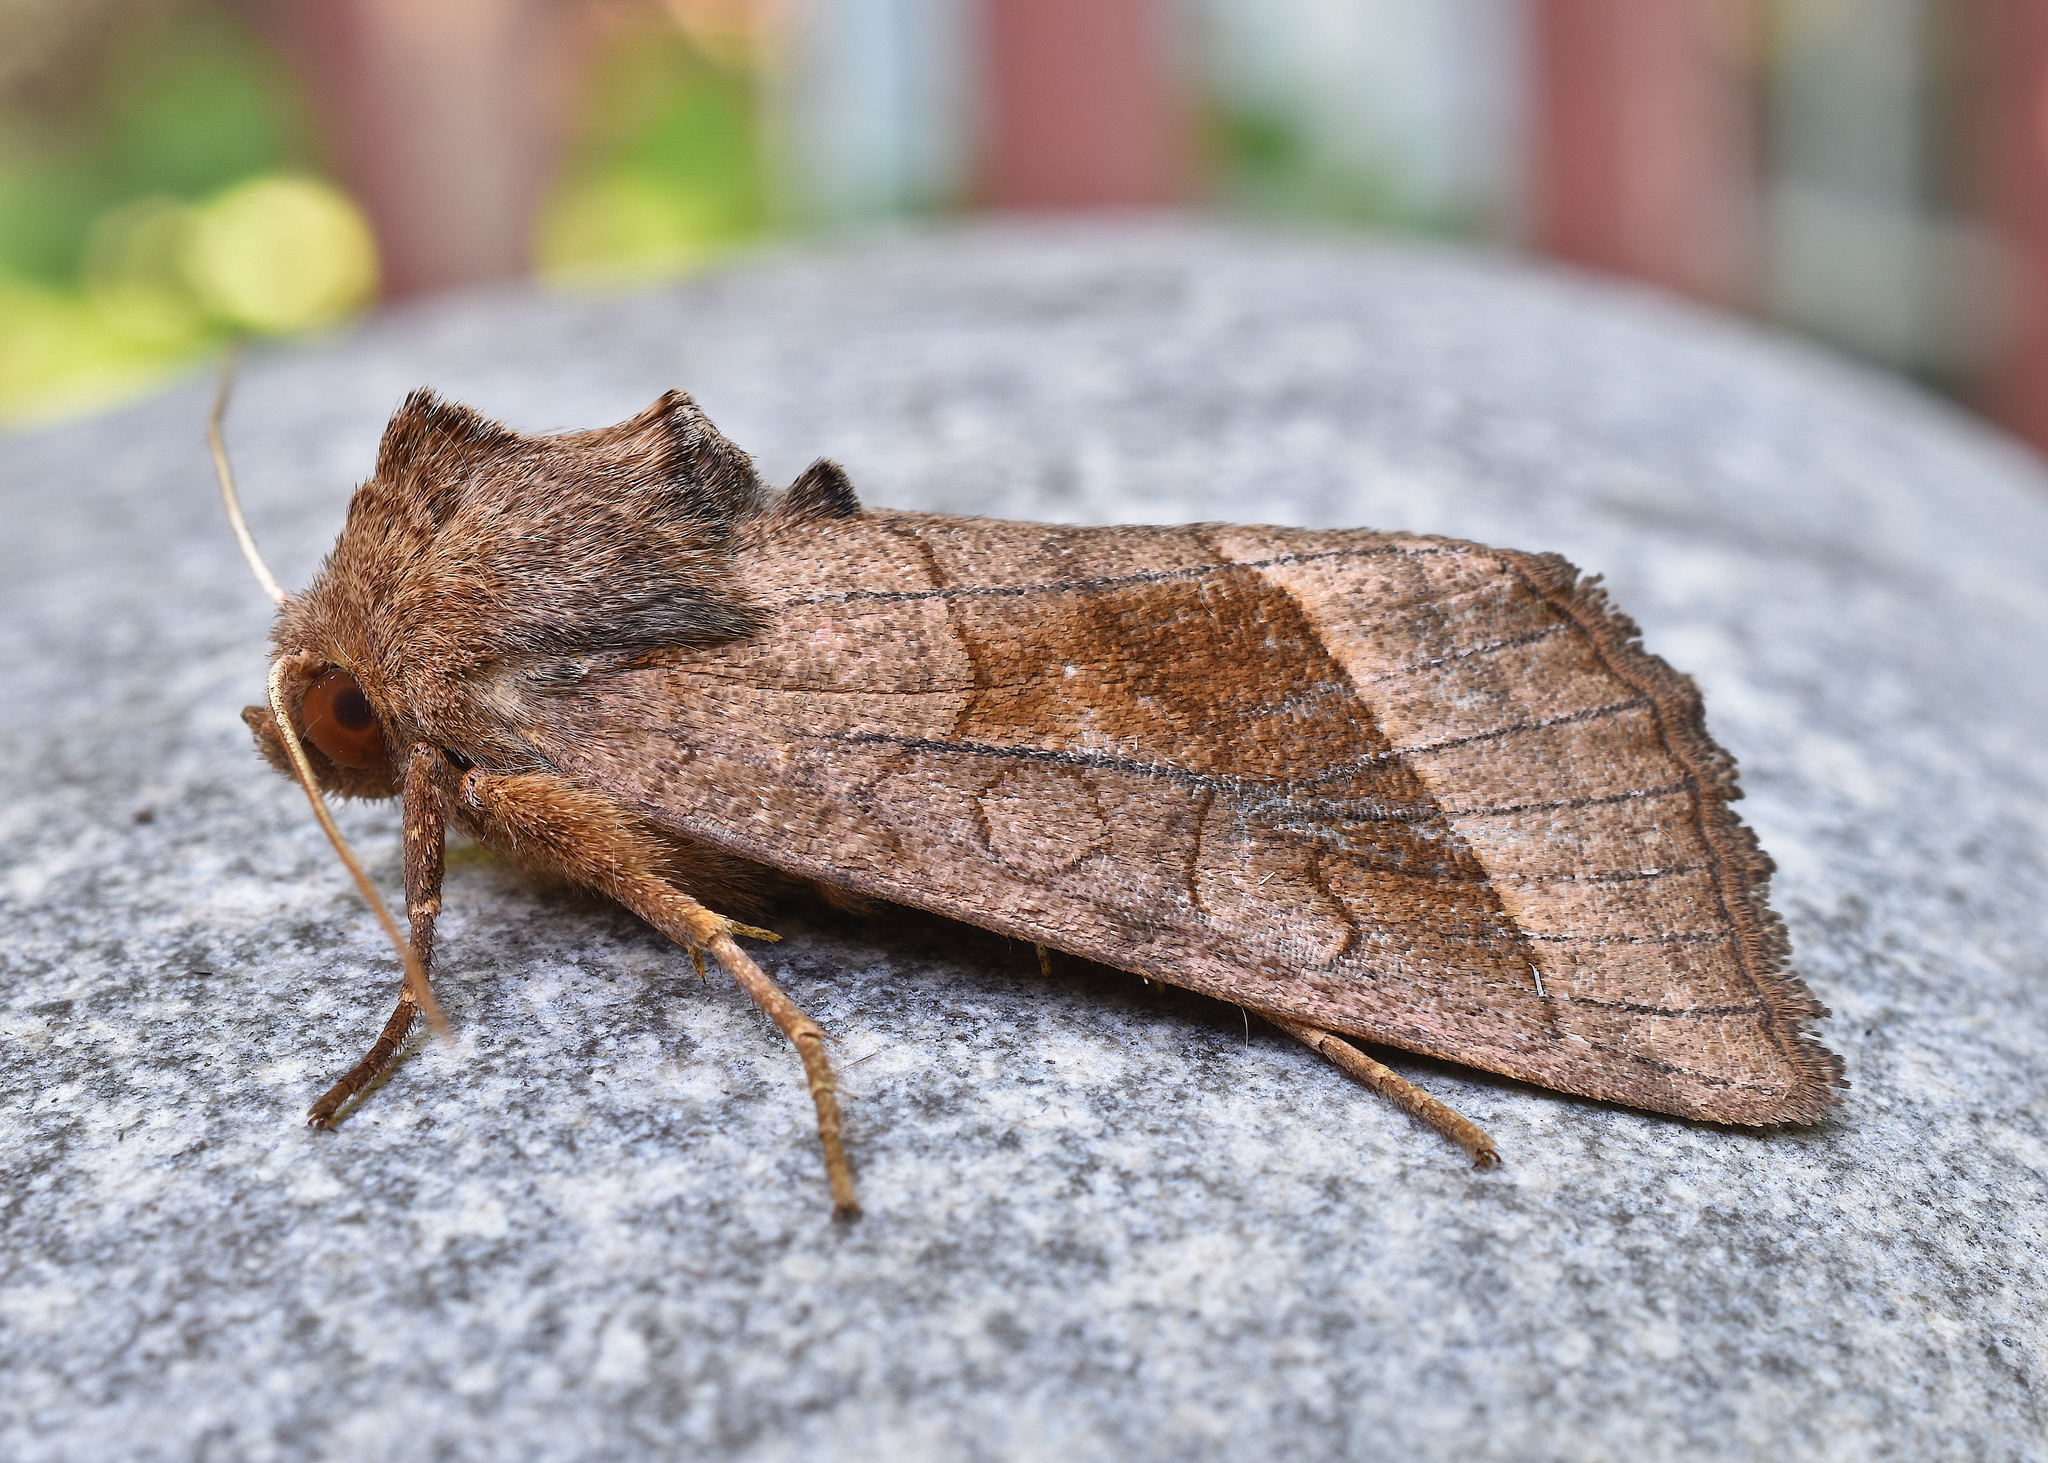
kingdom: Animalia
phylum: Arthropoda
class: Insecta
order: Lepidoptera
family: Noctuidae
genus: Hydraecia
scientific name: Hydraecia micacea
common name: Rosy rustic
